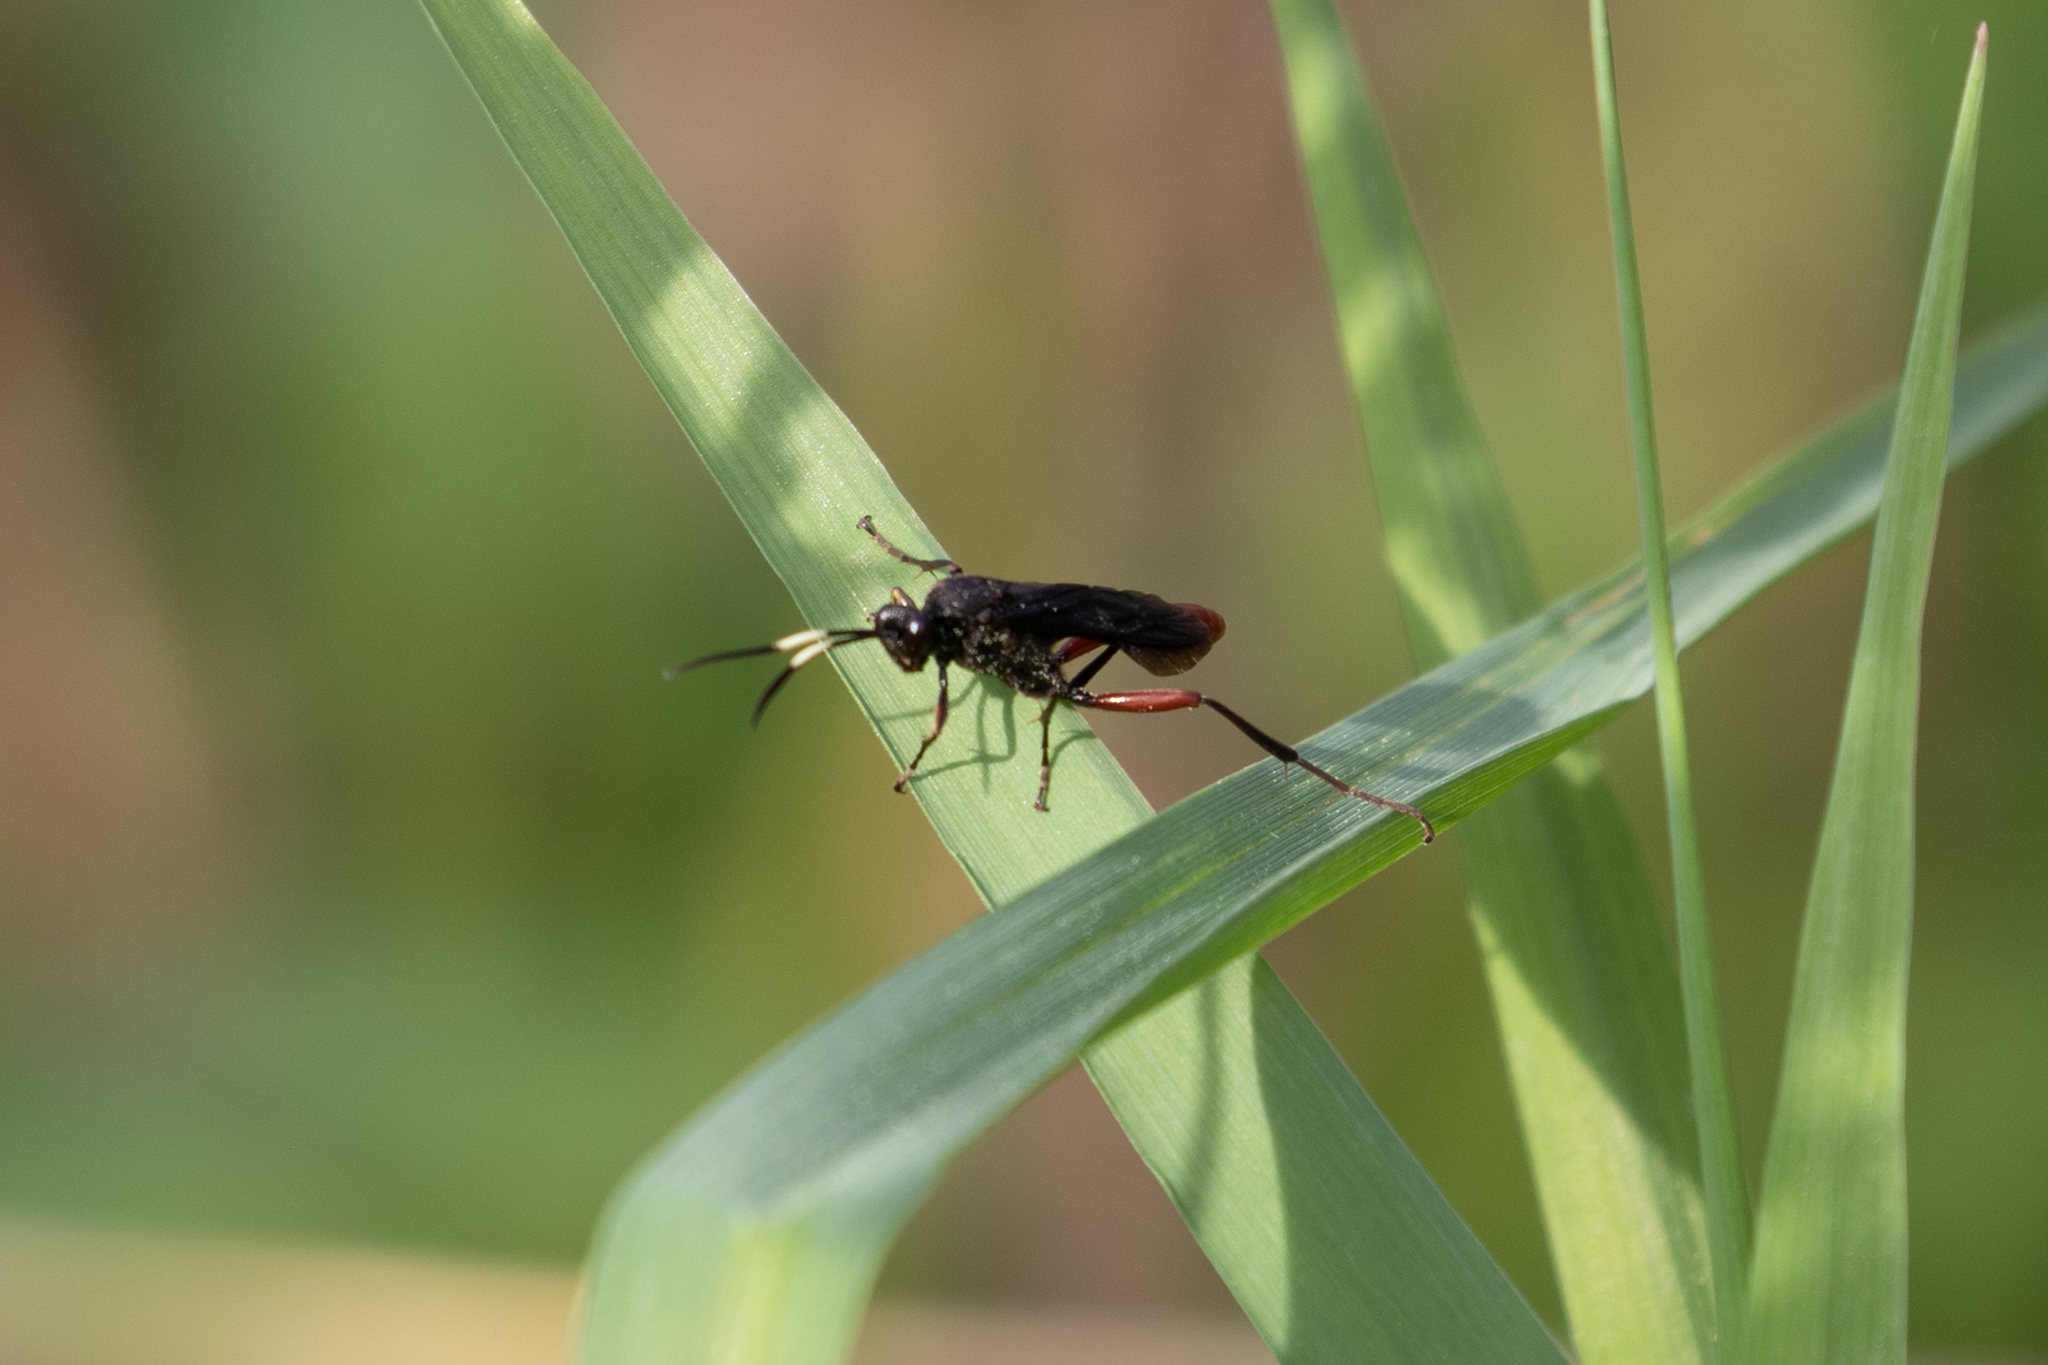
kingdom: Animalia
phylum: Arthropoda
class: Insecta
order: Hymenoptera
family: Ichneumonidae
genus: Limonethe
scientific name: Limonethe maurator
